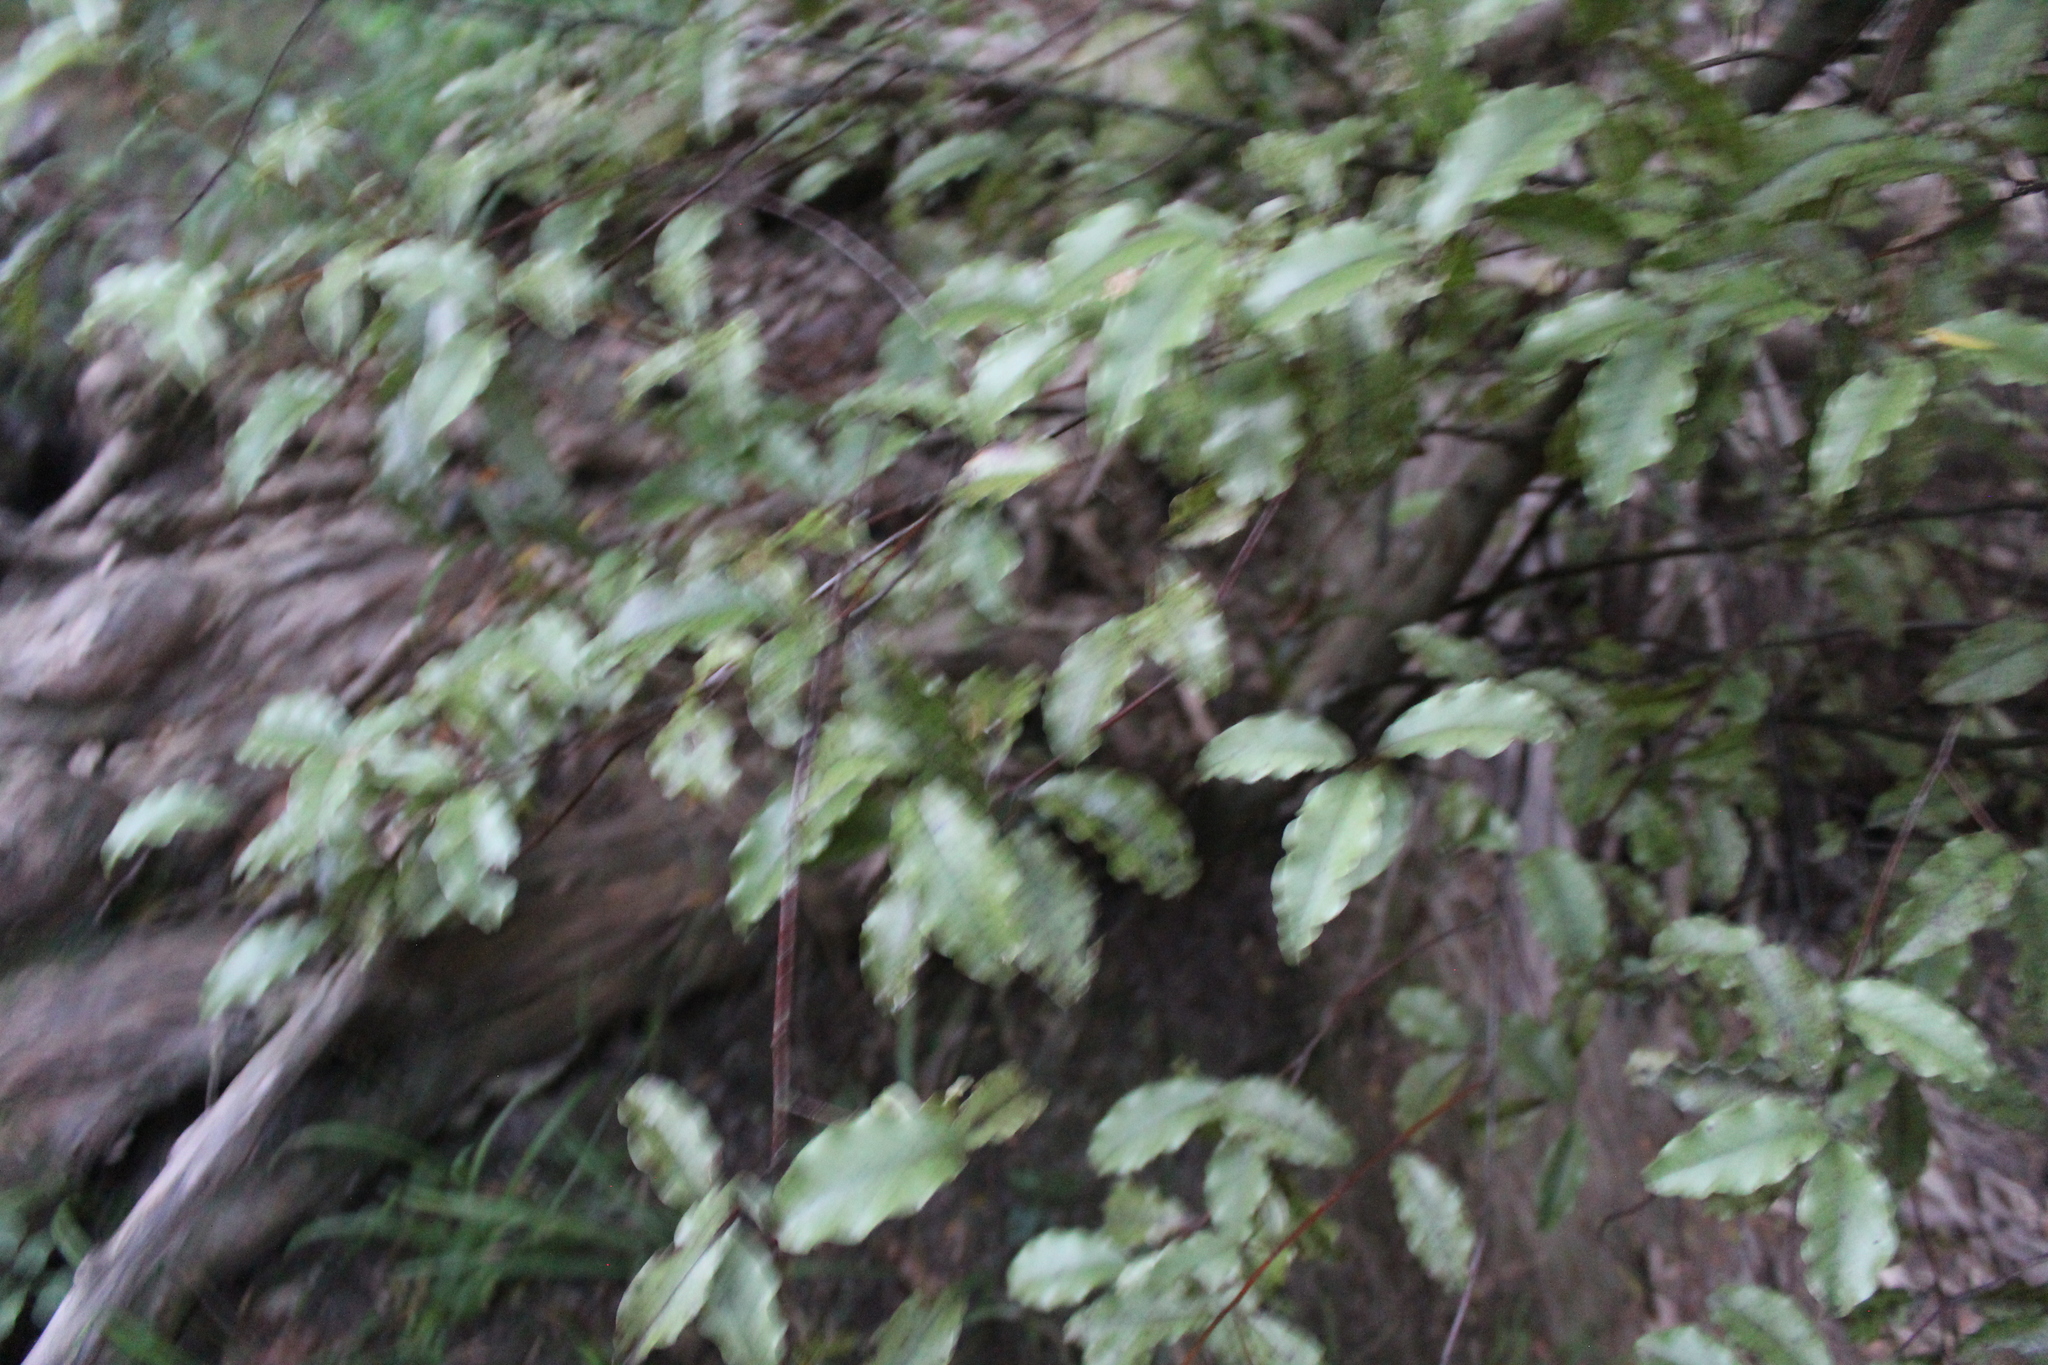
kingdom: Plantae
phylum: Tracheophyta
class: Magnoliopsida
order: Ericales
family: Primulaceae
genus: Myrsine
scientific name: Myrsine australis
